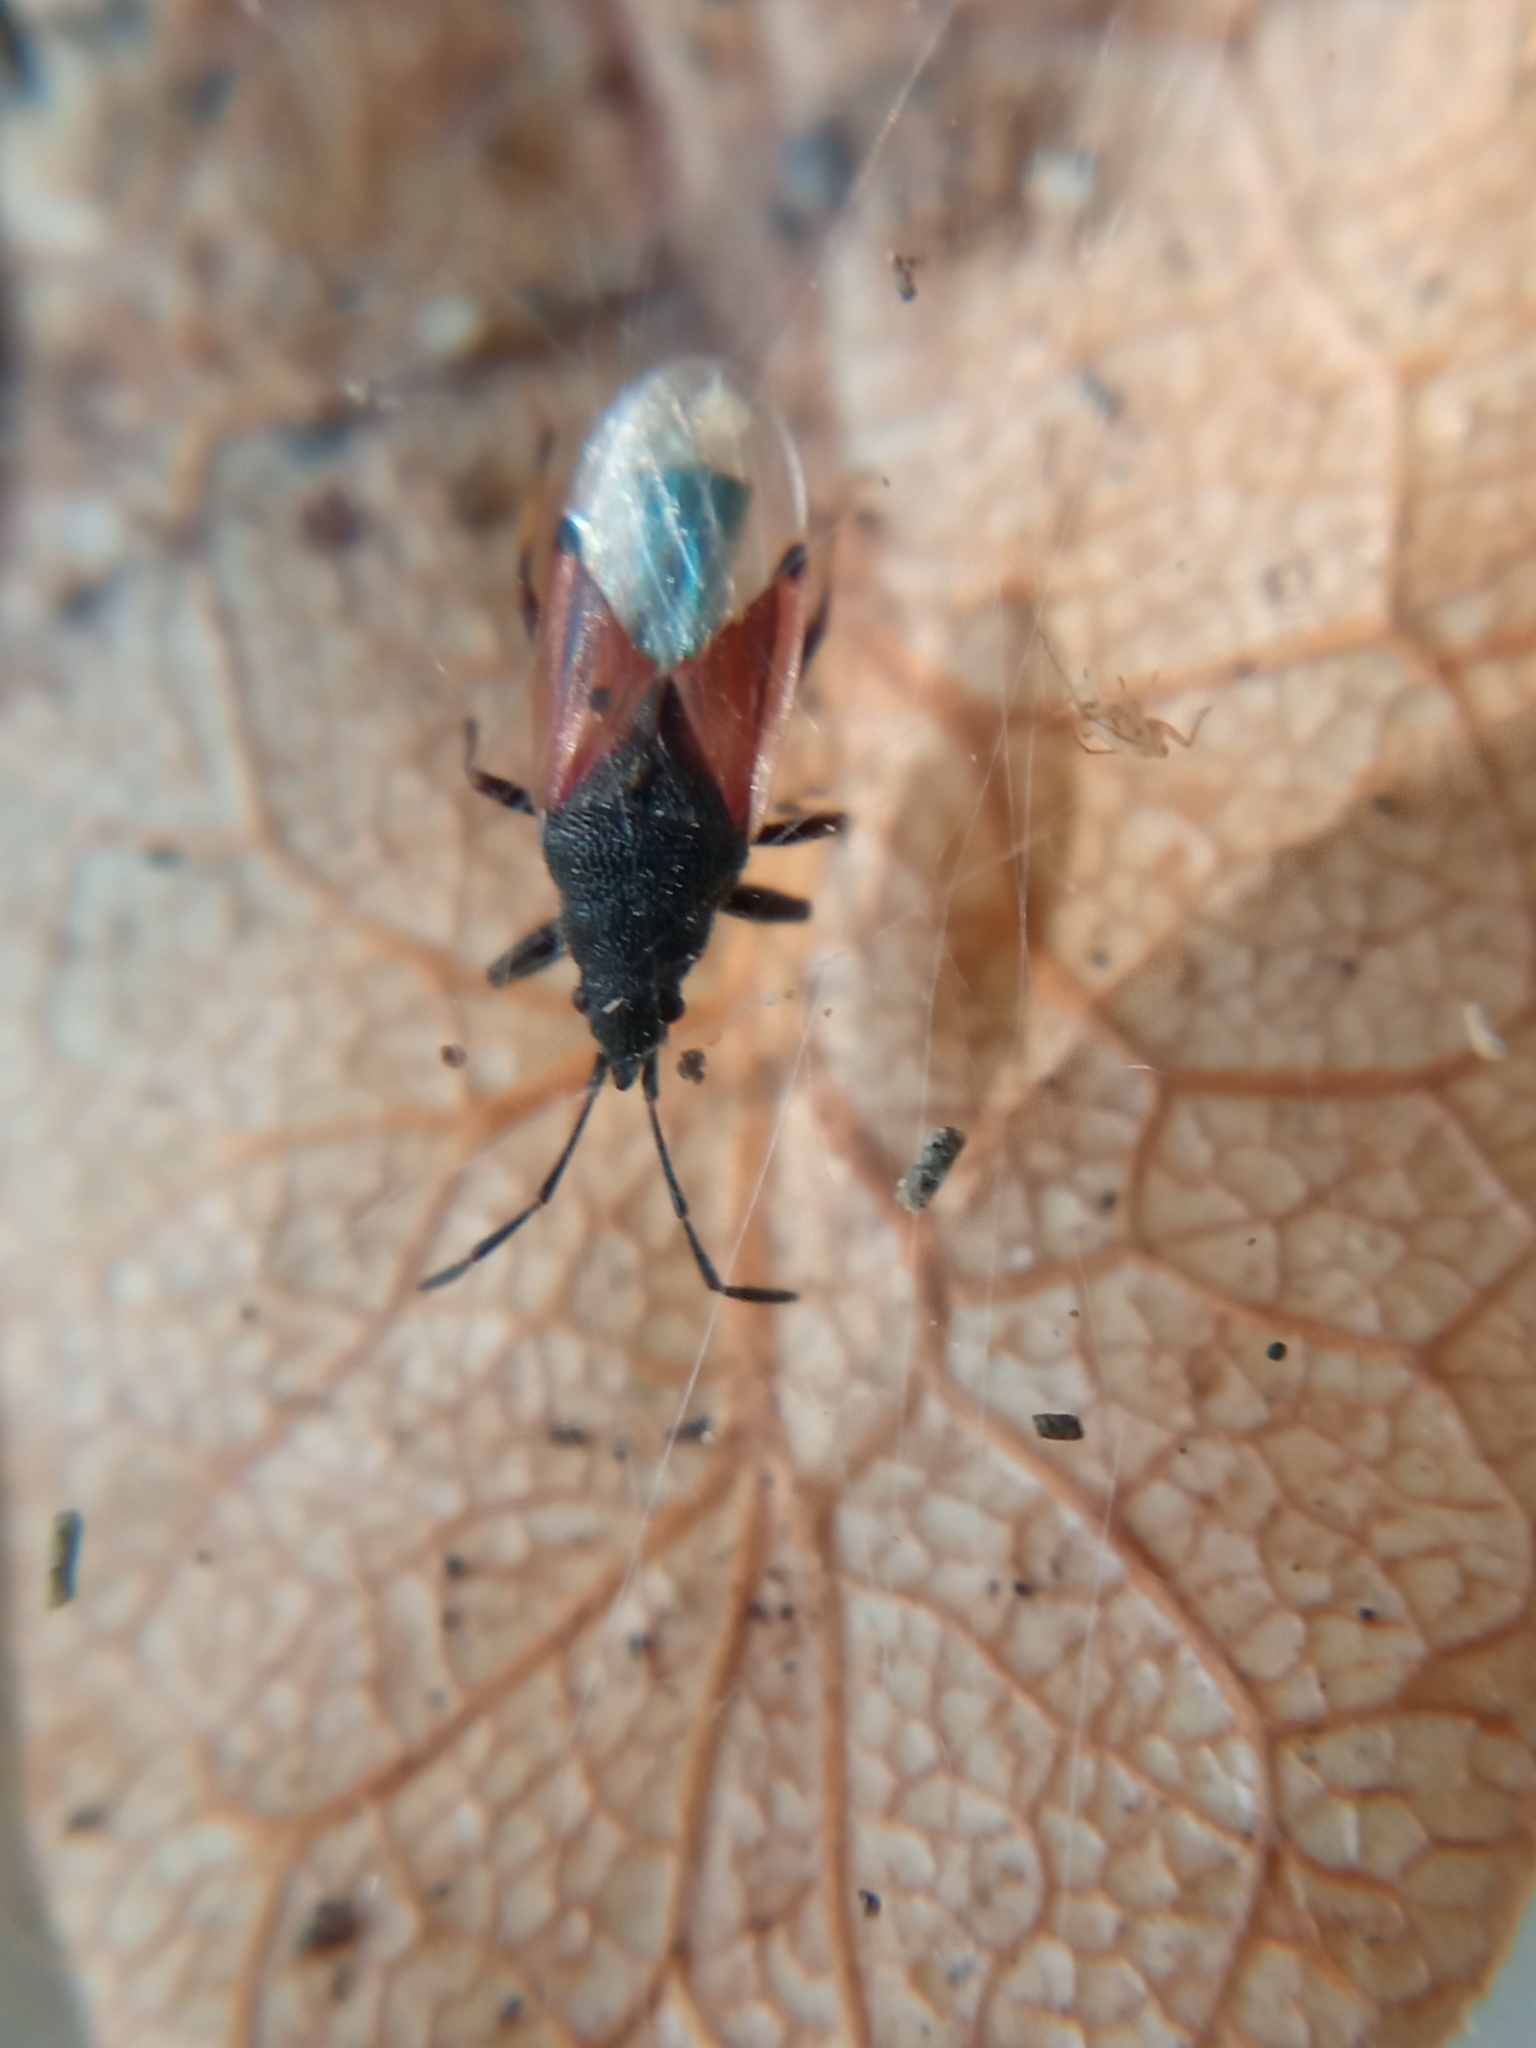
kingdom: Animalia
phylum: Arthropoda
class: Insecta
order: Hemiptera
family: Oxycarenidae
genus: Oxycarenus
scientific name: Oxycarenus lavaterae
